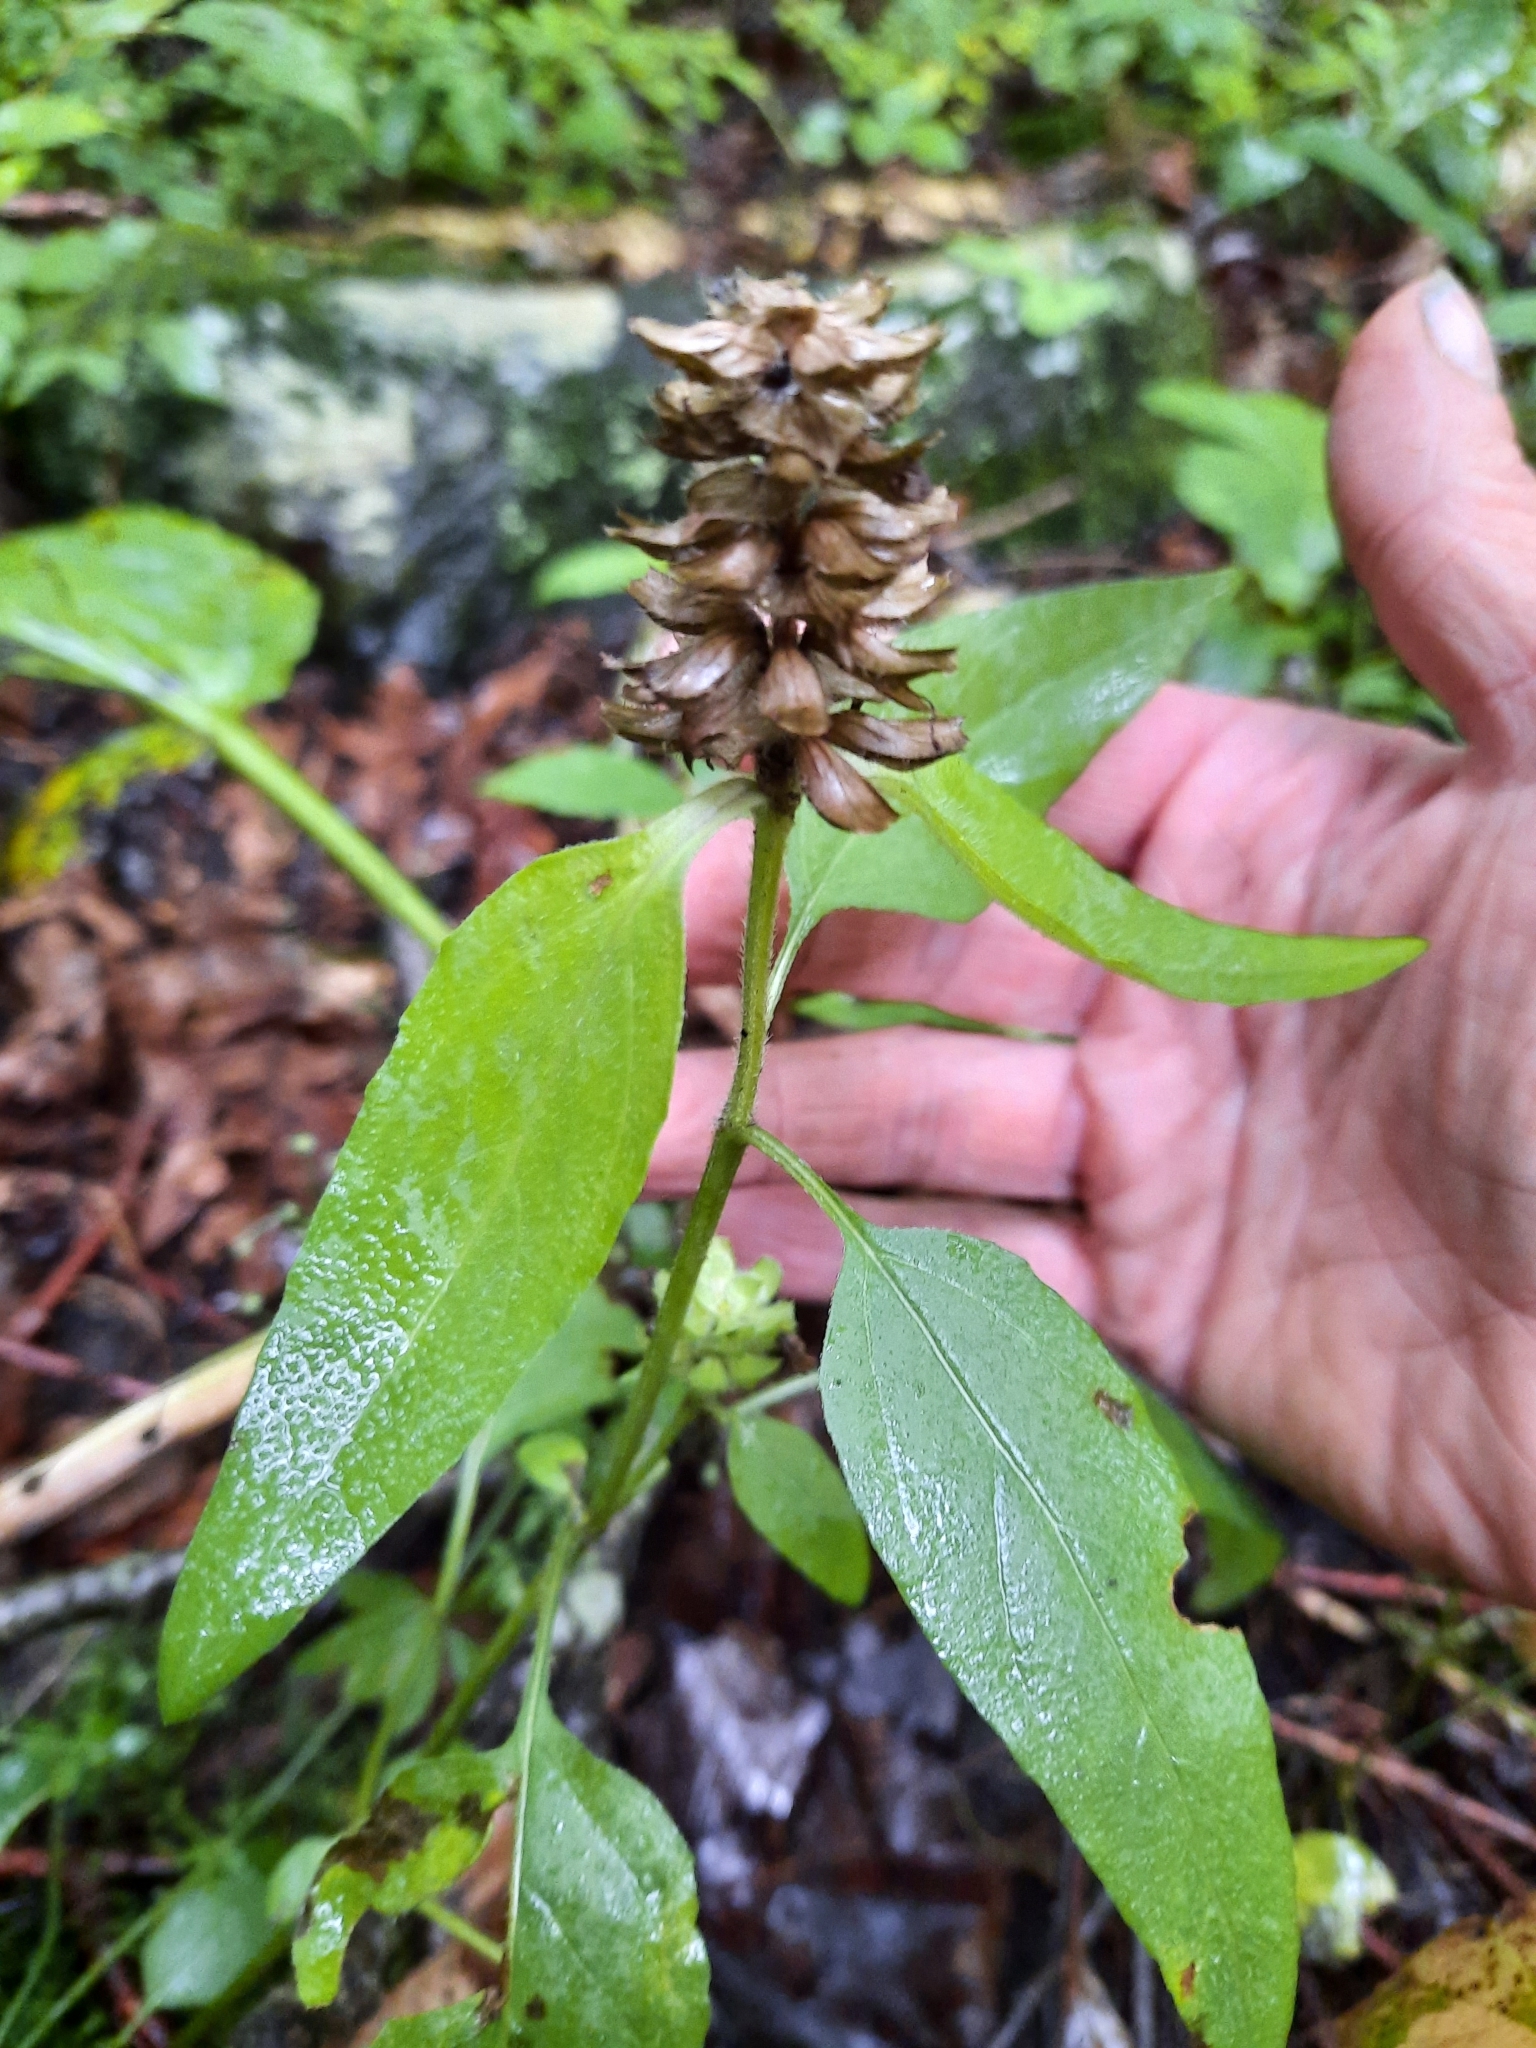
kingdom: Plantae
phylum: Tracheophyta
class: Magnoliopsida
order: Lamiales
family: Lamiaceae
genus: Prunella
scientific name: Prunella vulgaris
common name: Heal-all
